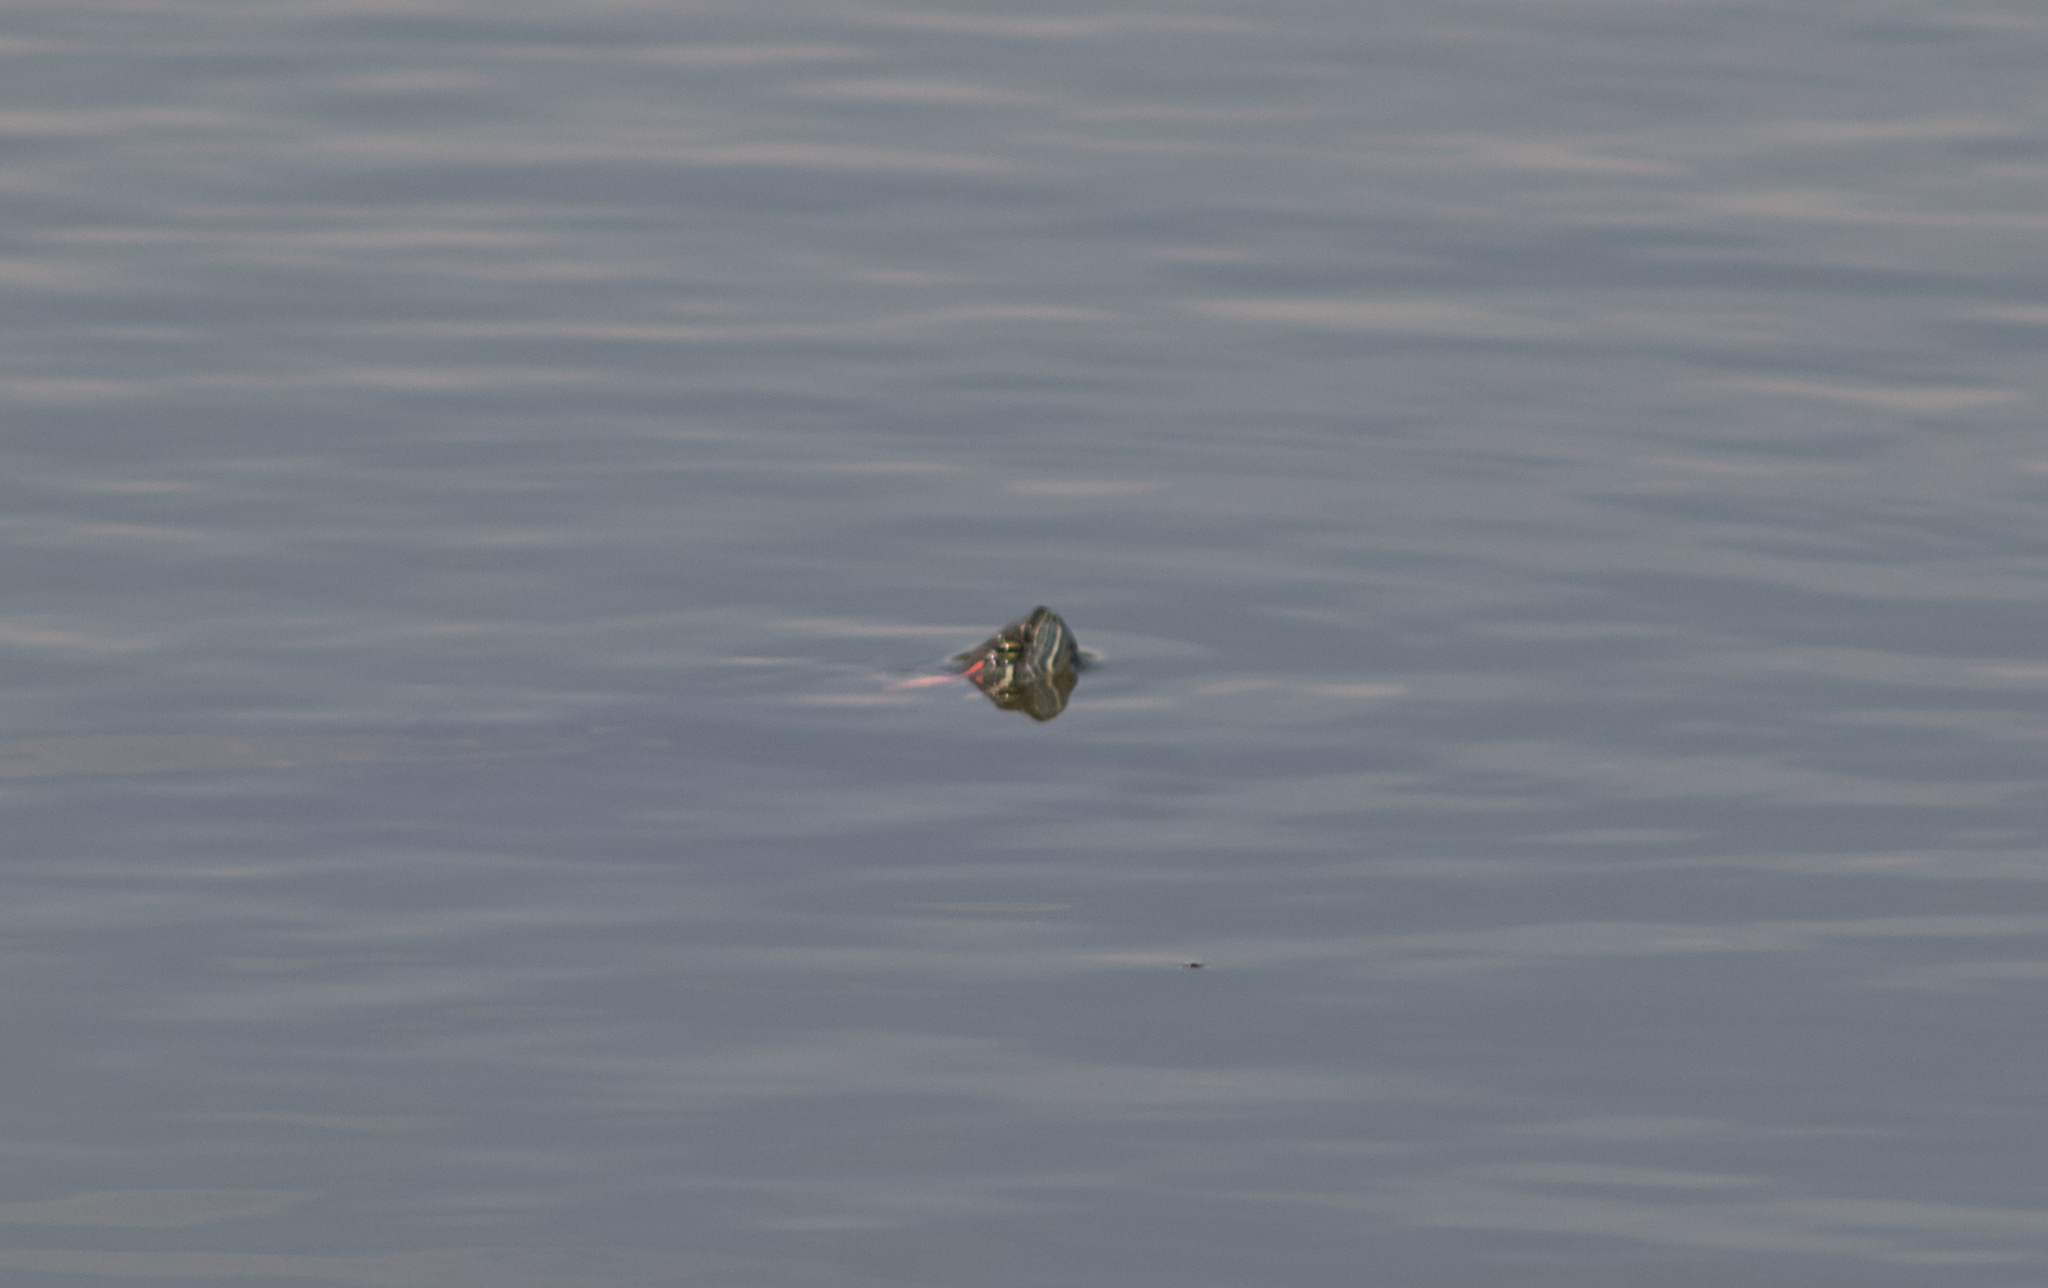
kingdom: Animalia
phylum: Chordata
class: Testudines
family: Emydidae
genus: Trachemys
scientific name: Trachemys scripta
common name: Slider
